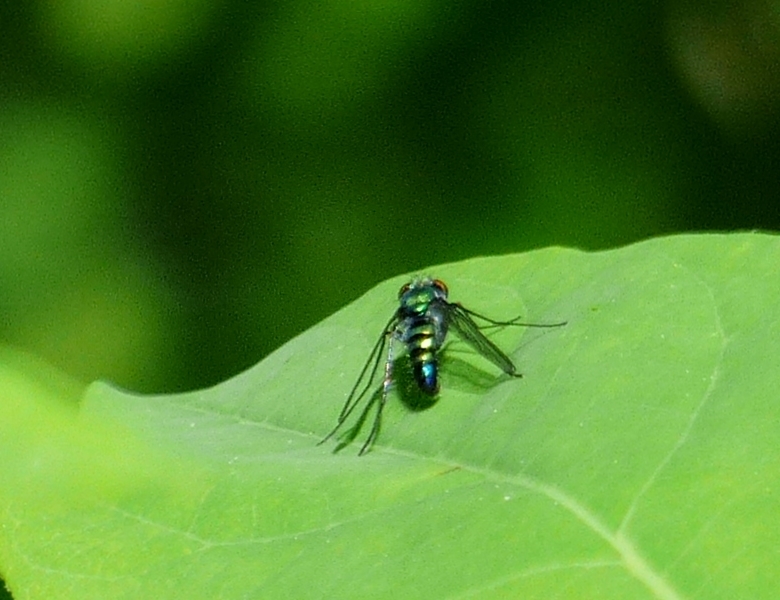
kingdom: Animalia
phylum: Arthropoda
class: Insecta
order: Diptera
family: Dolichopodidae
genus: Condylostylus
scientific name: Condylostylus patibulatus
